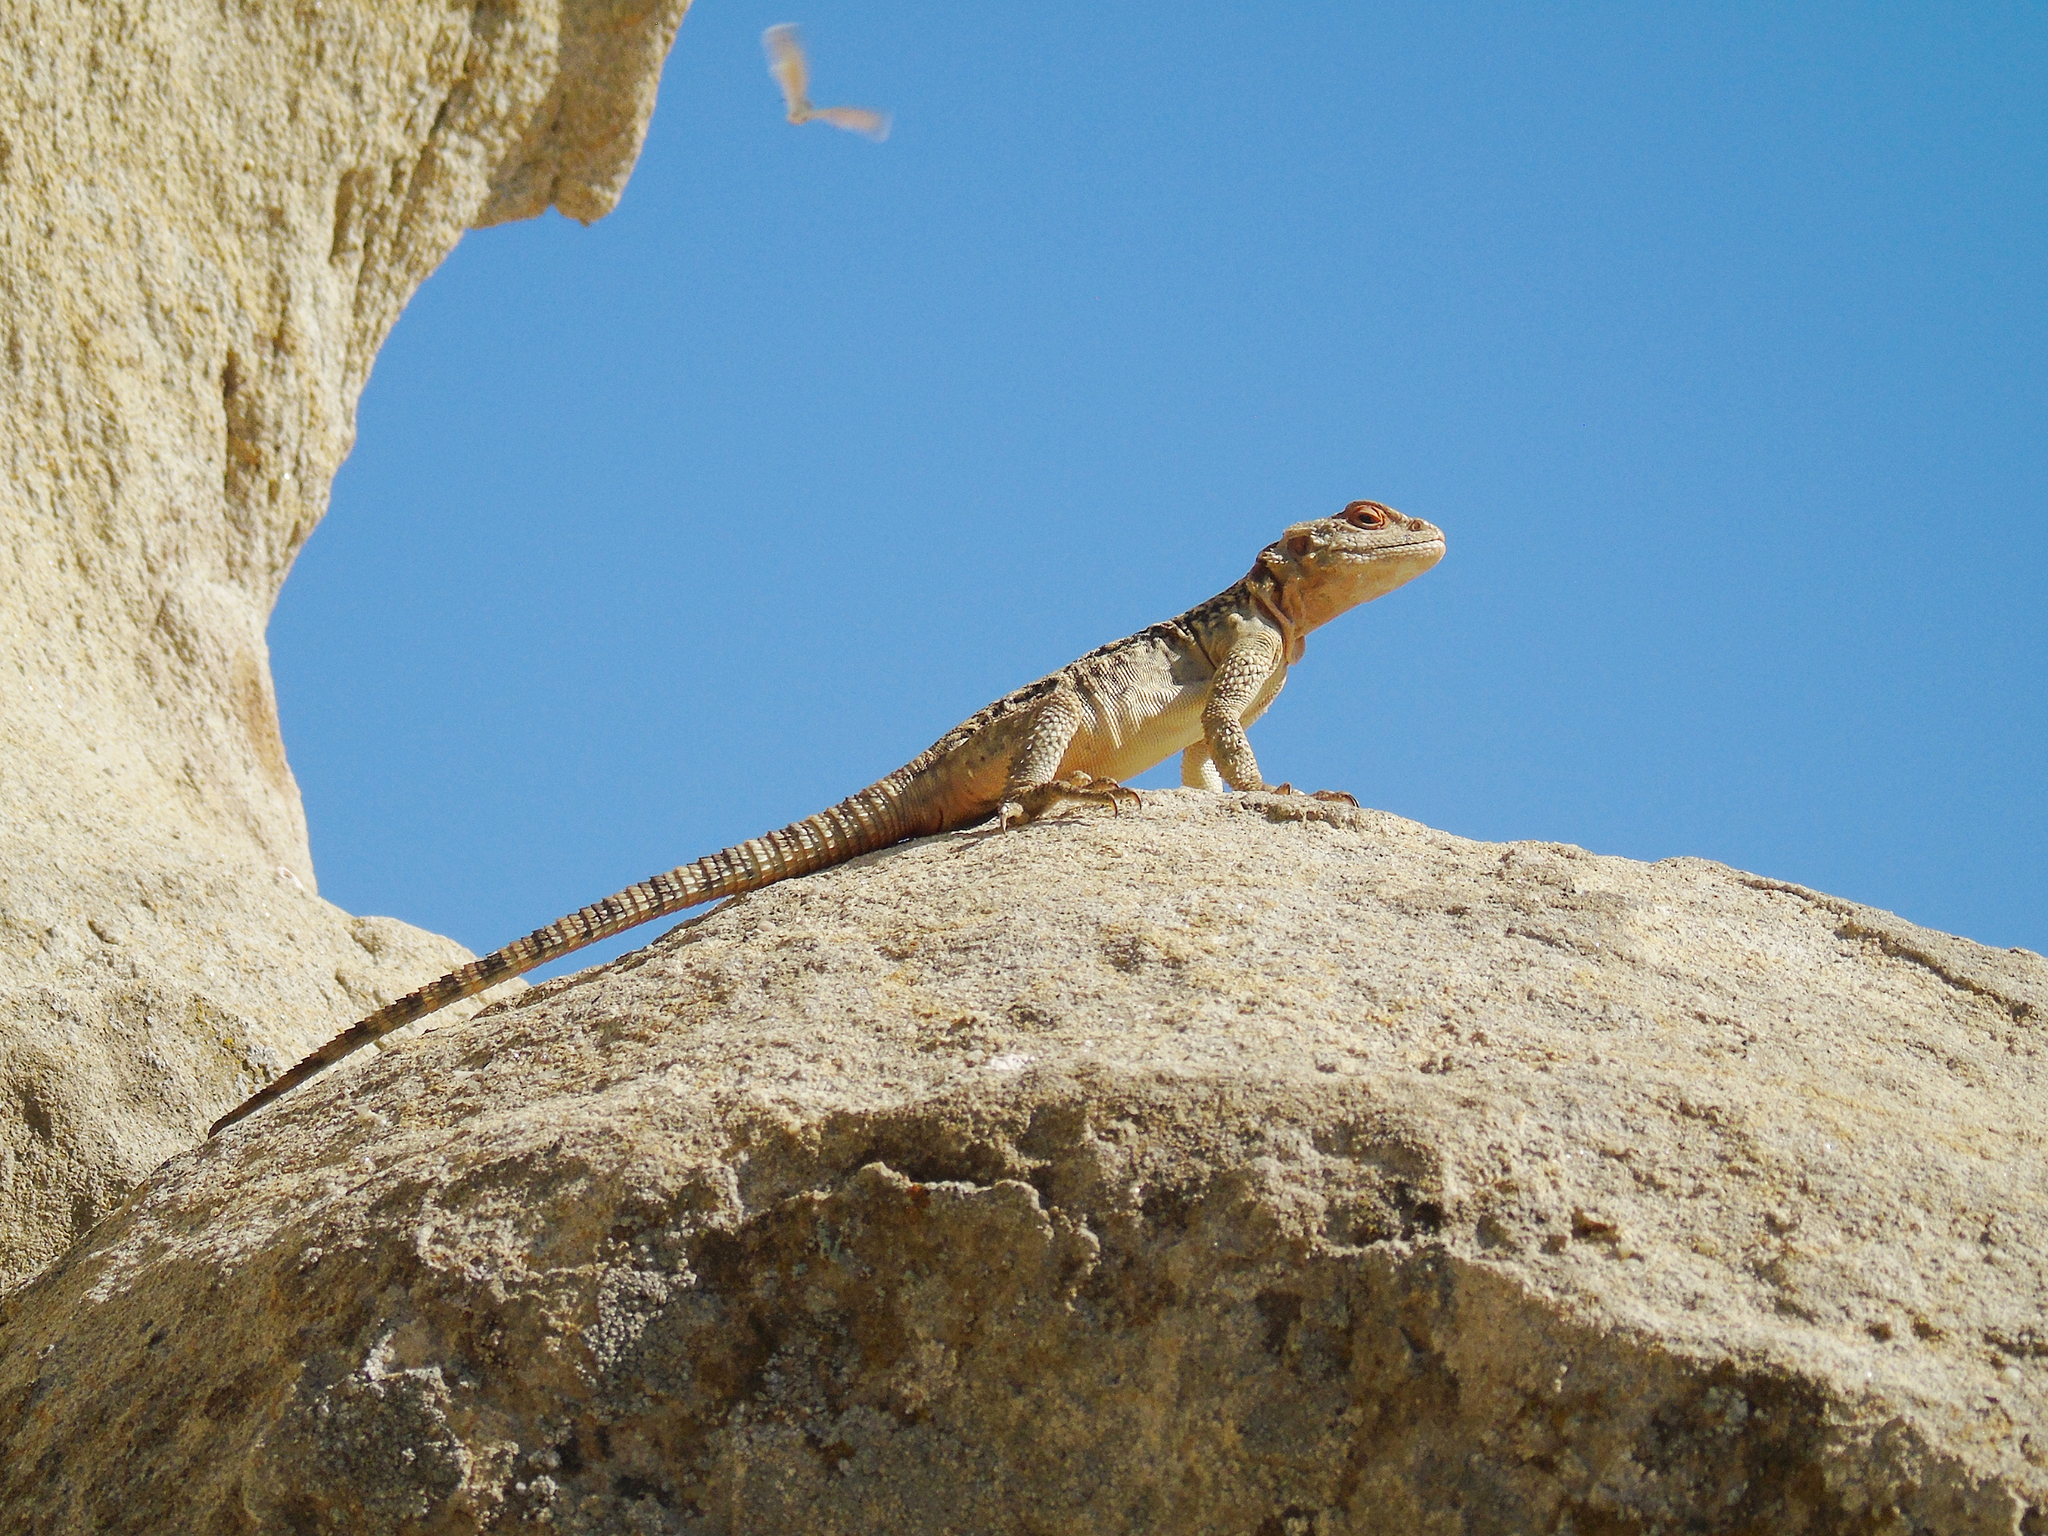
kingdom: Animalia
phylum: Chordata
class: Squamata
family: Agamidae
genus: Paralaudakia
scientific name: Paralaudakia caucasia
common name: Caucasian agama
